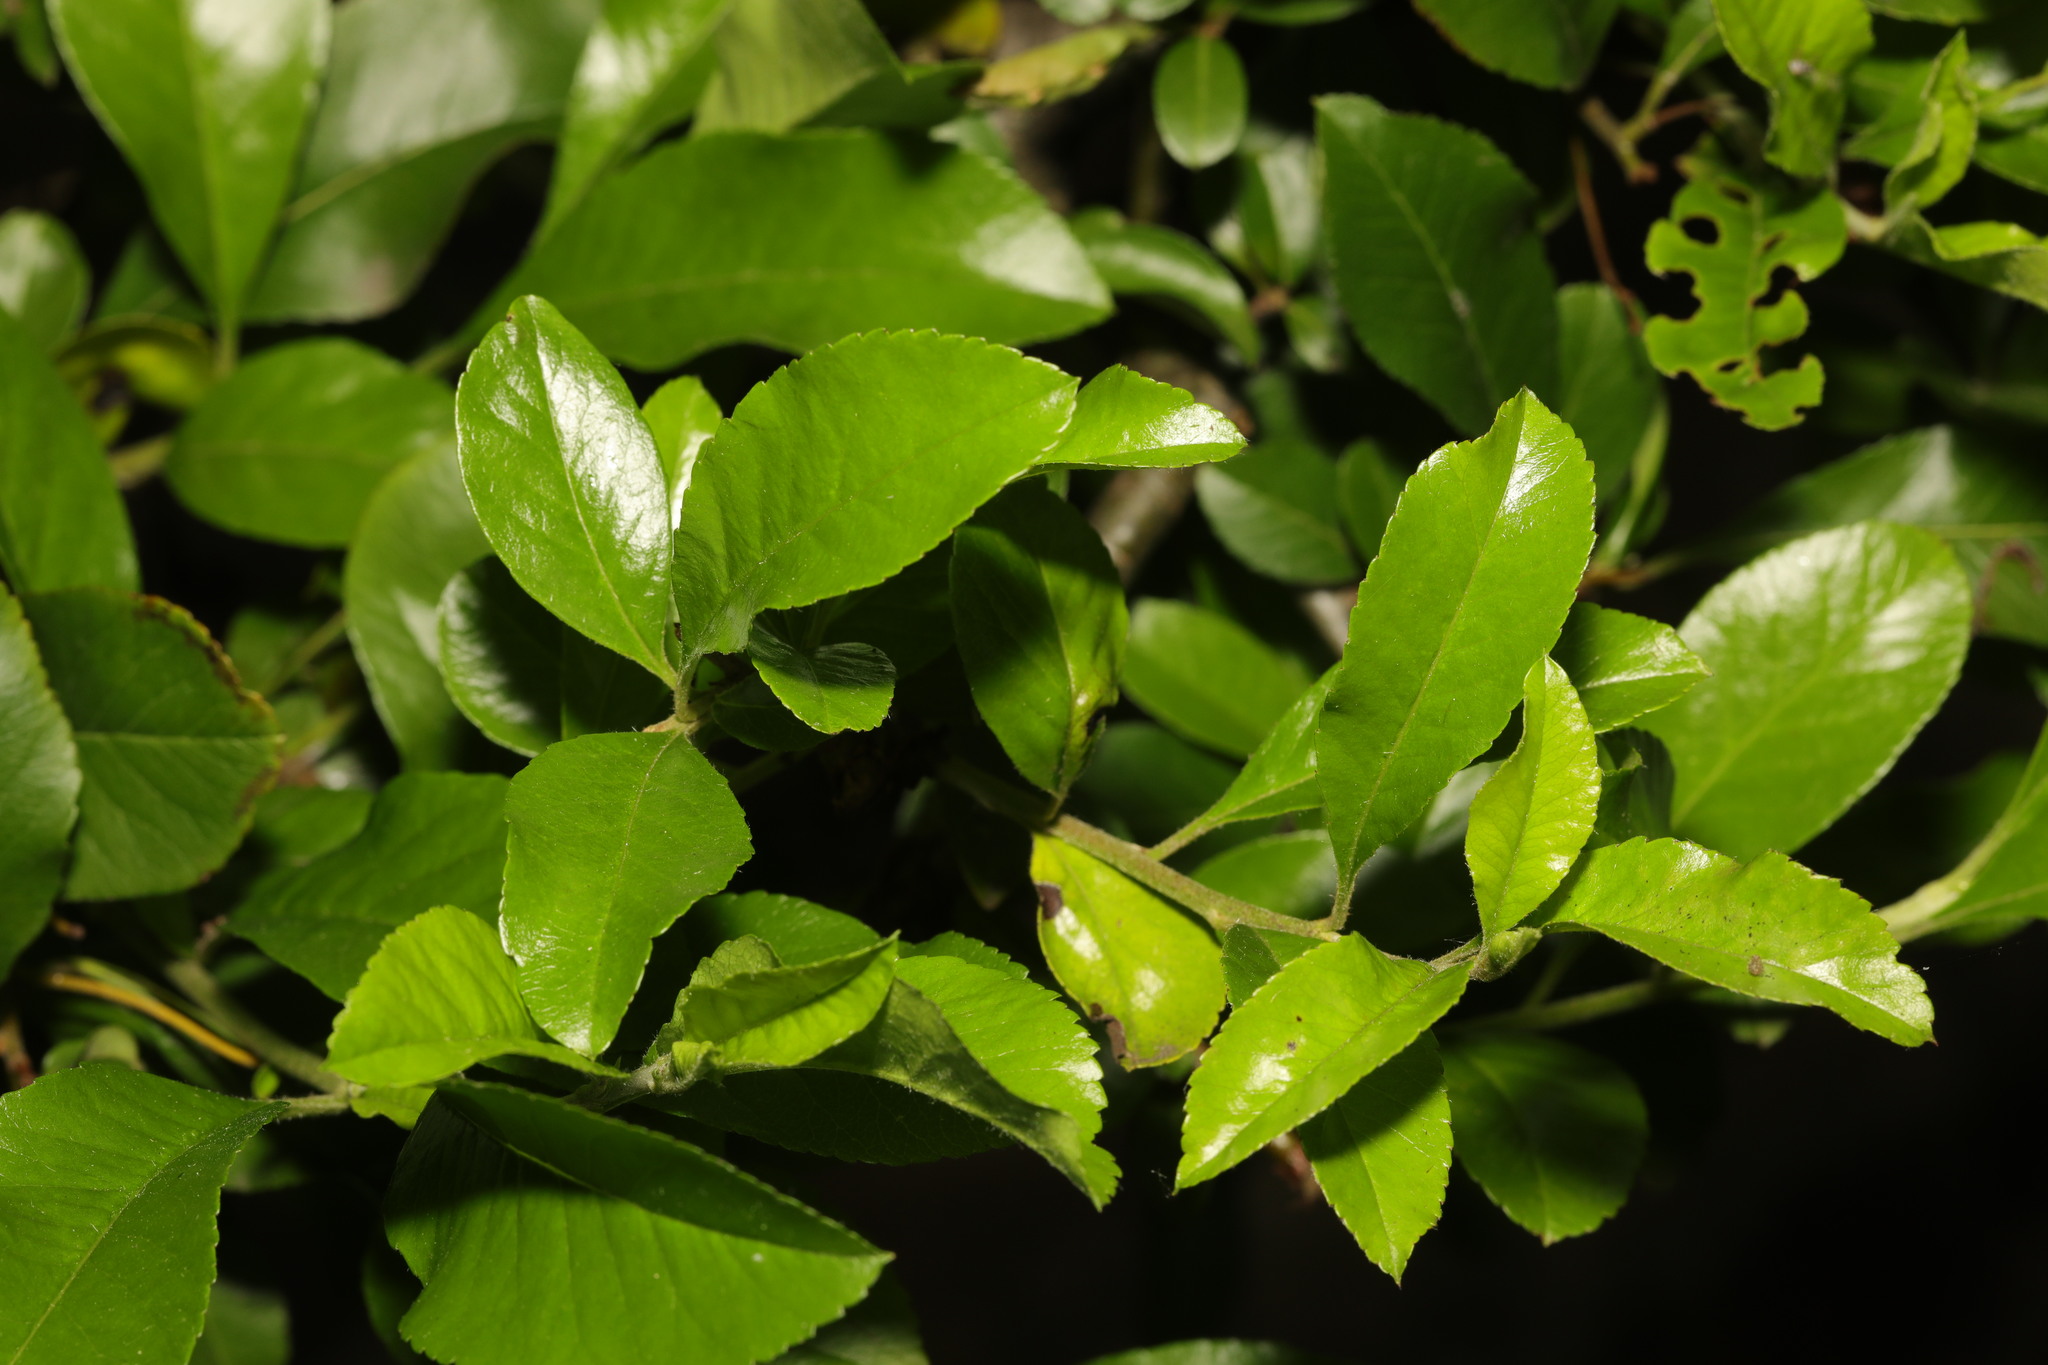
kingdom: Plantae
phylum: Tracheophyta
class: Magnoliopsida
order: Celastrales
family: Celastraceae
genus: Euonymus
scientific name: Euonymus japonicus
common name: Japanese spindletree
